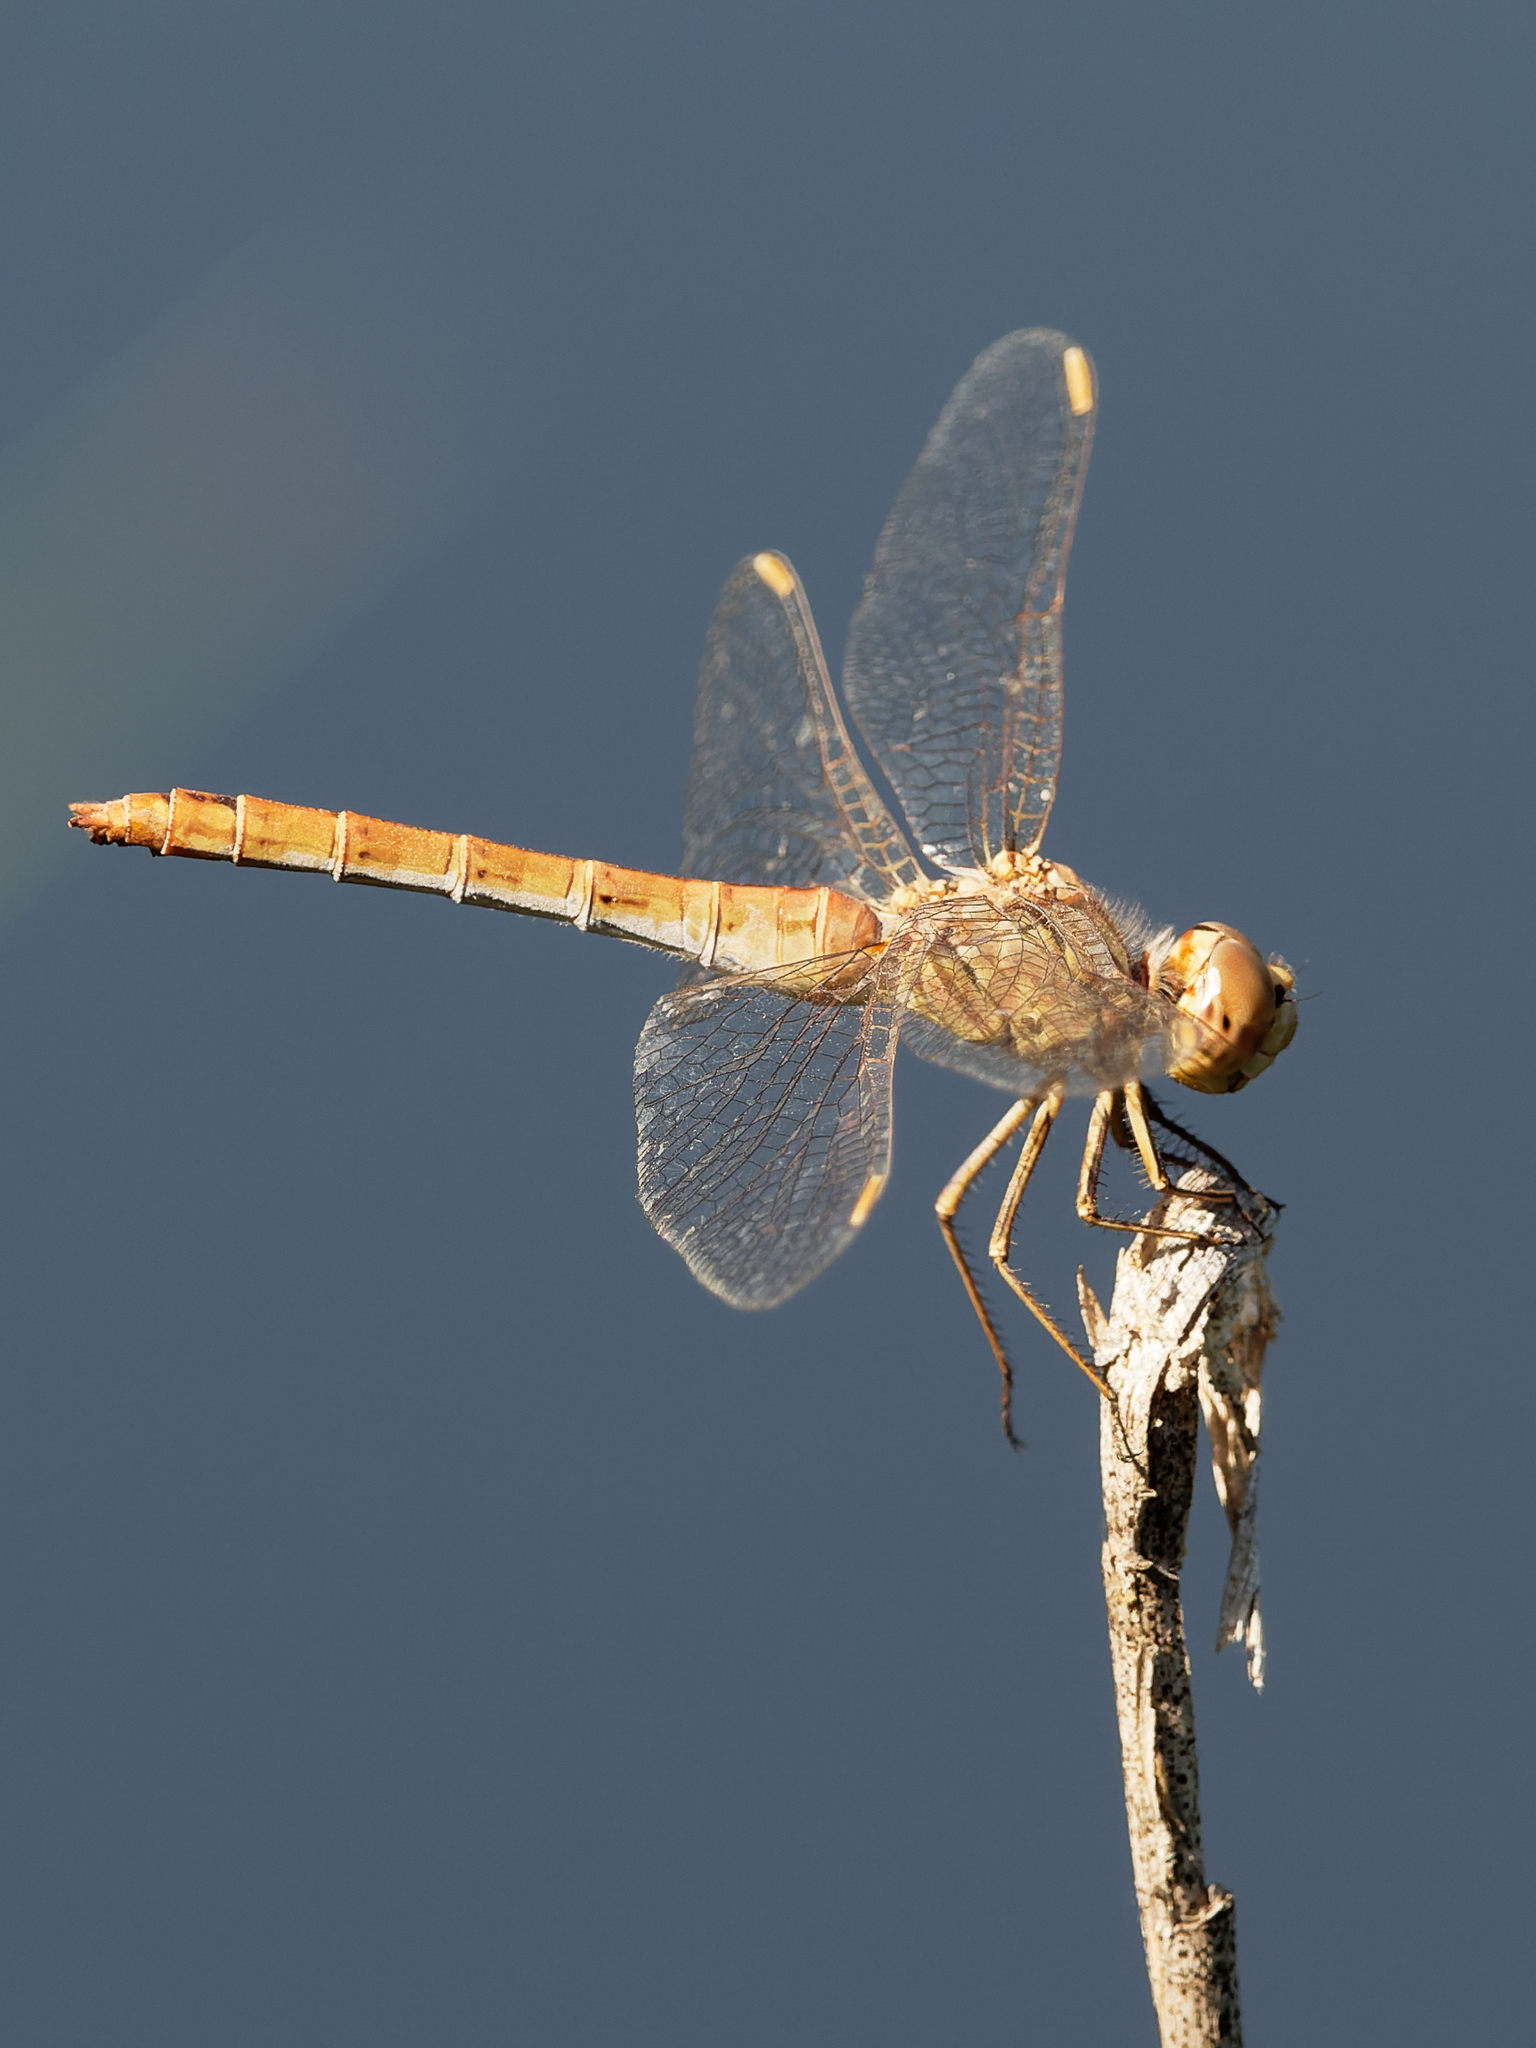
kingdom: Animalia
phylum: Arthropoda
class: Insecta
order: Odonata
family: Libellulidae
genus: Sympetrum
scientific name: Sympetrum meridionale
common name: Southern darter
